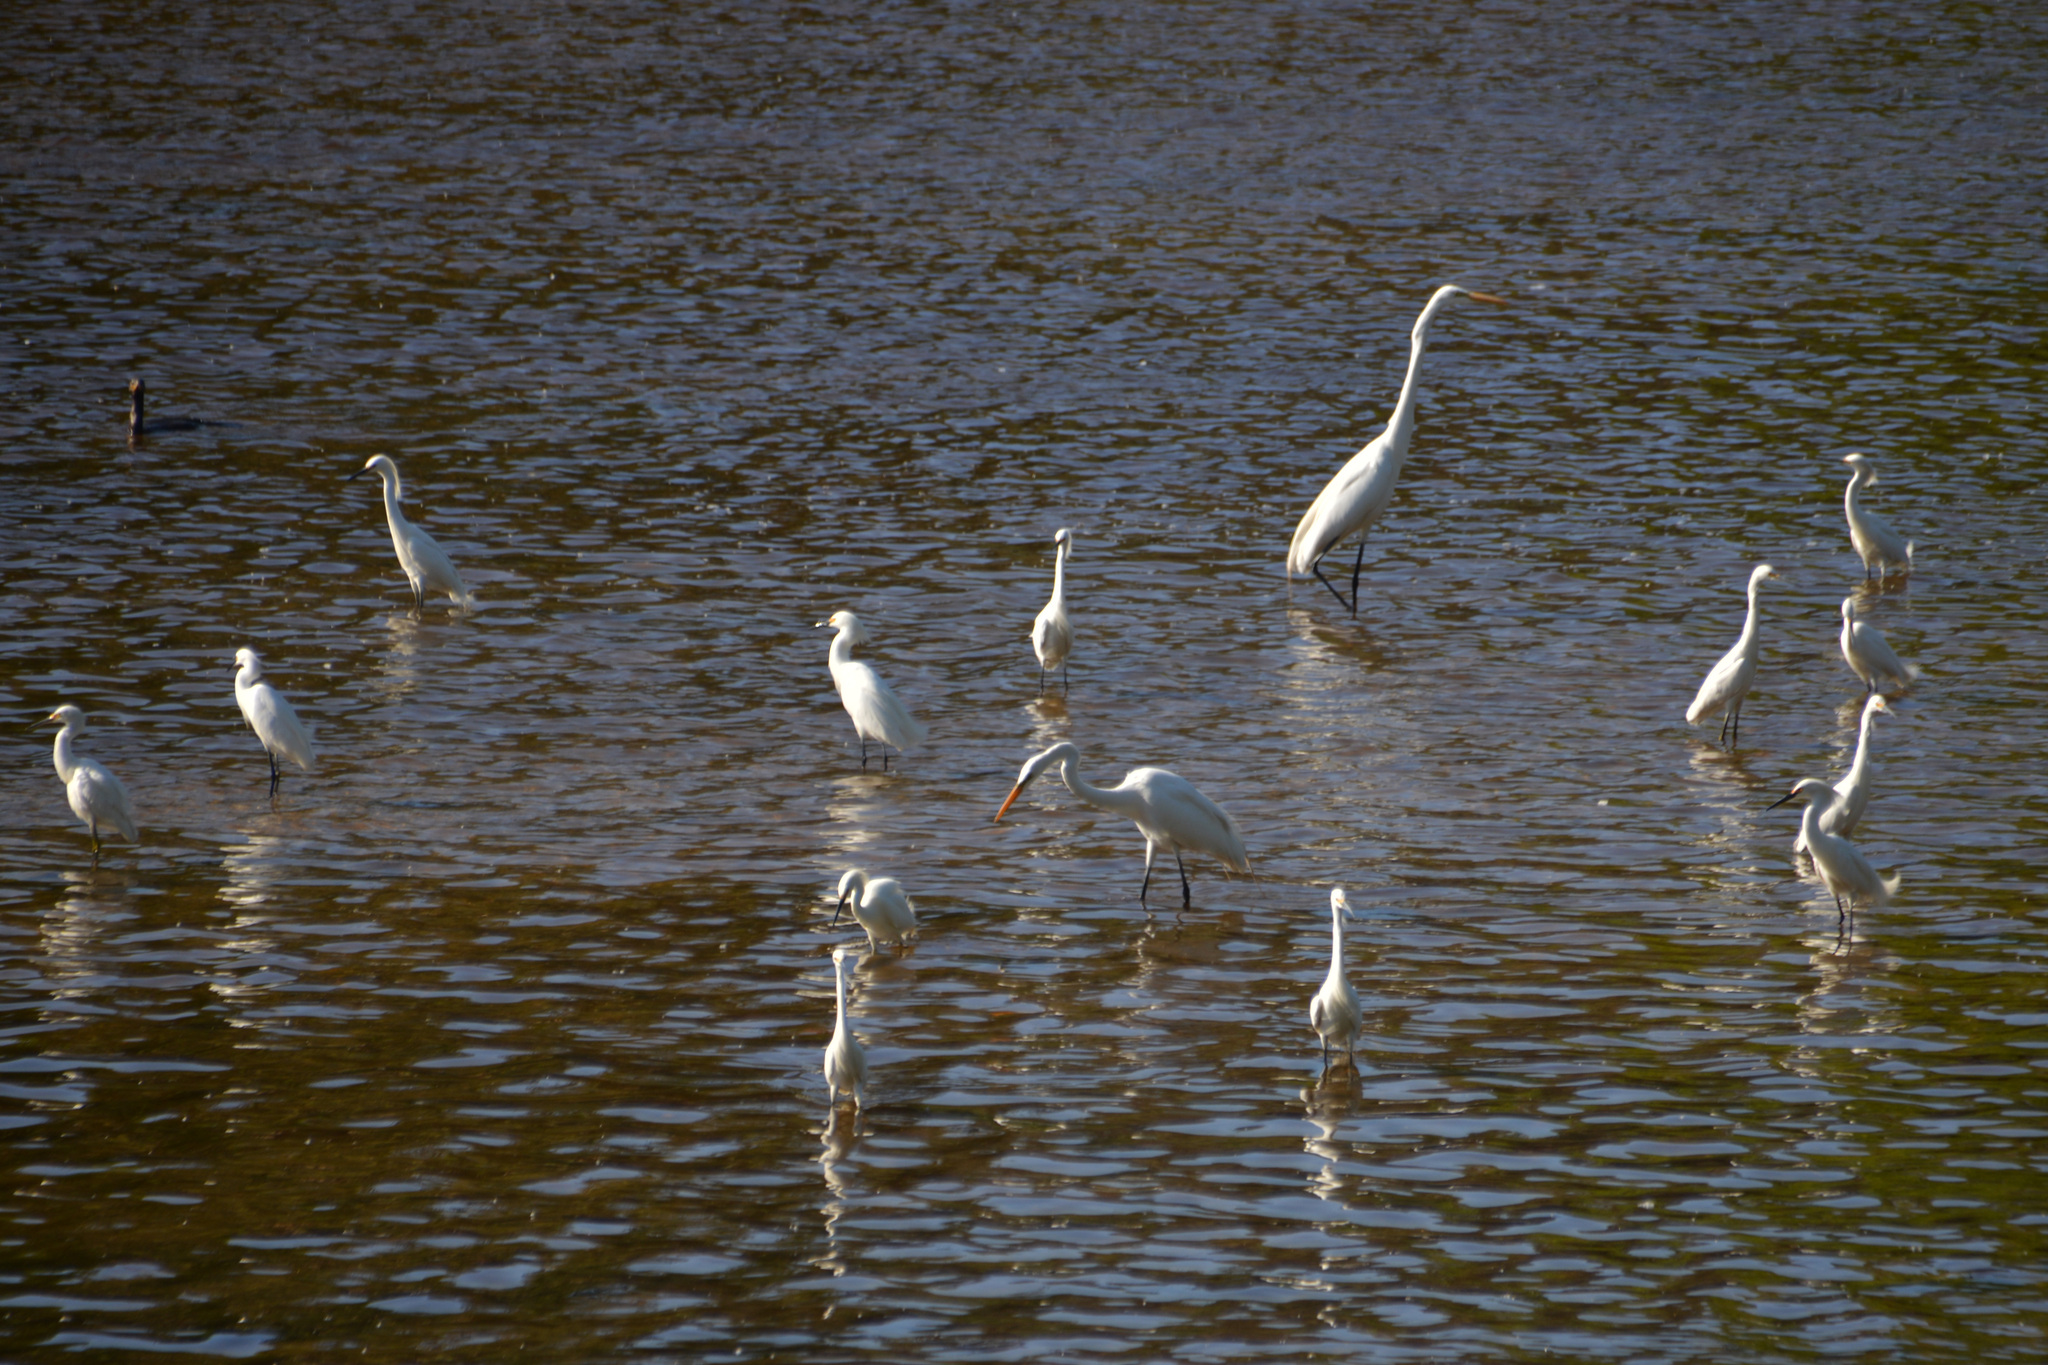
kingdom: Animalia
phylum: Chordata
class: Aves
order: Pelecaniformes
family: Ardeidae
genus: Ardea
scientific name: Ardea alba
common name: Great egret
